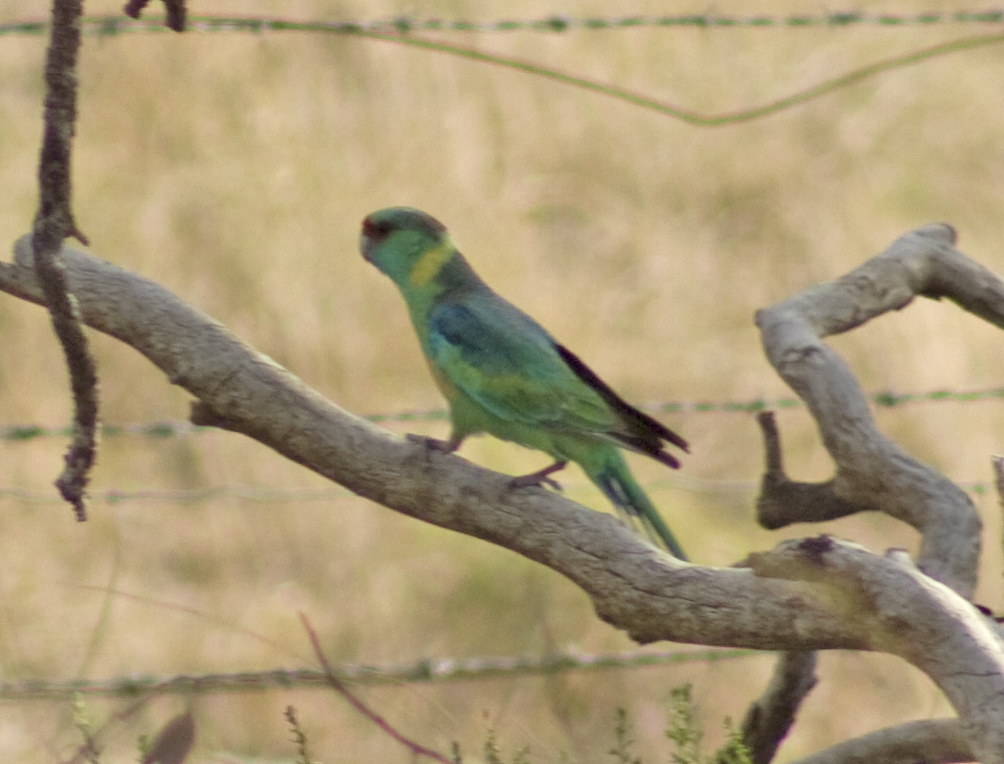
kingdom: Animalia
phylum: Chordata
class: Aves
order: Psittaciformes
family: Psittacidae
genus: Barnardius
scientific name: Barnardius zonarius
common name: Australian ringneck
